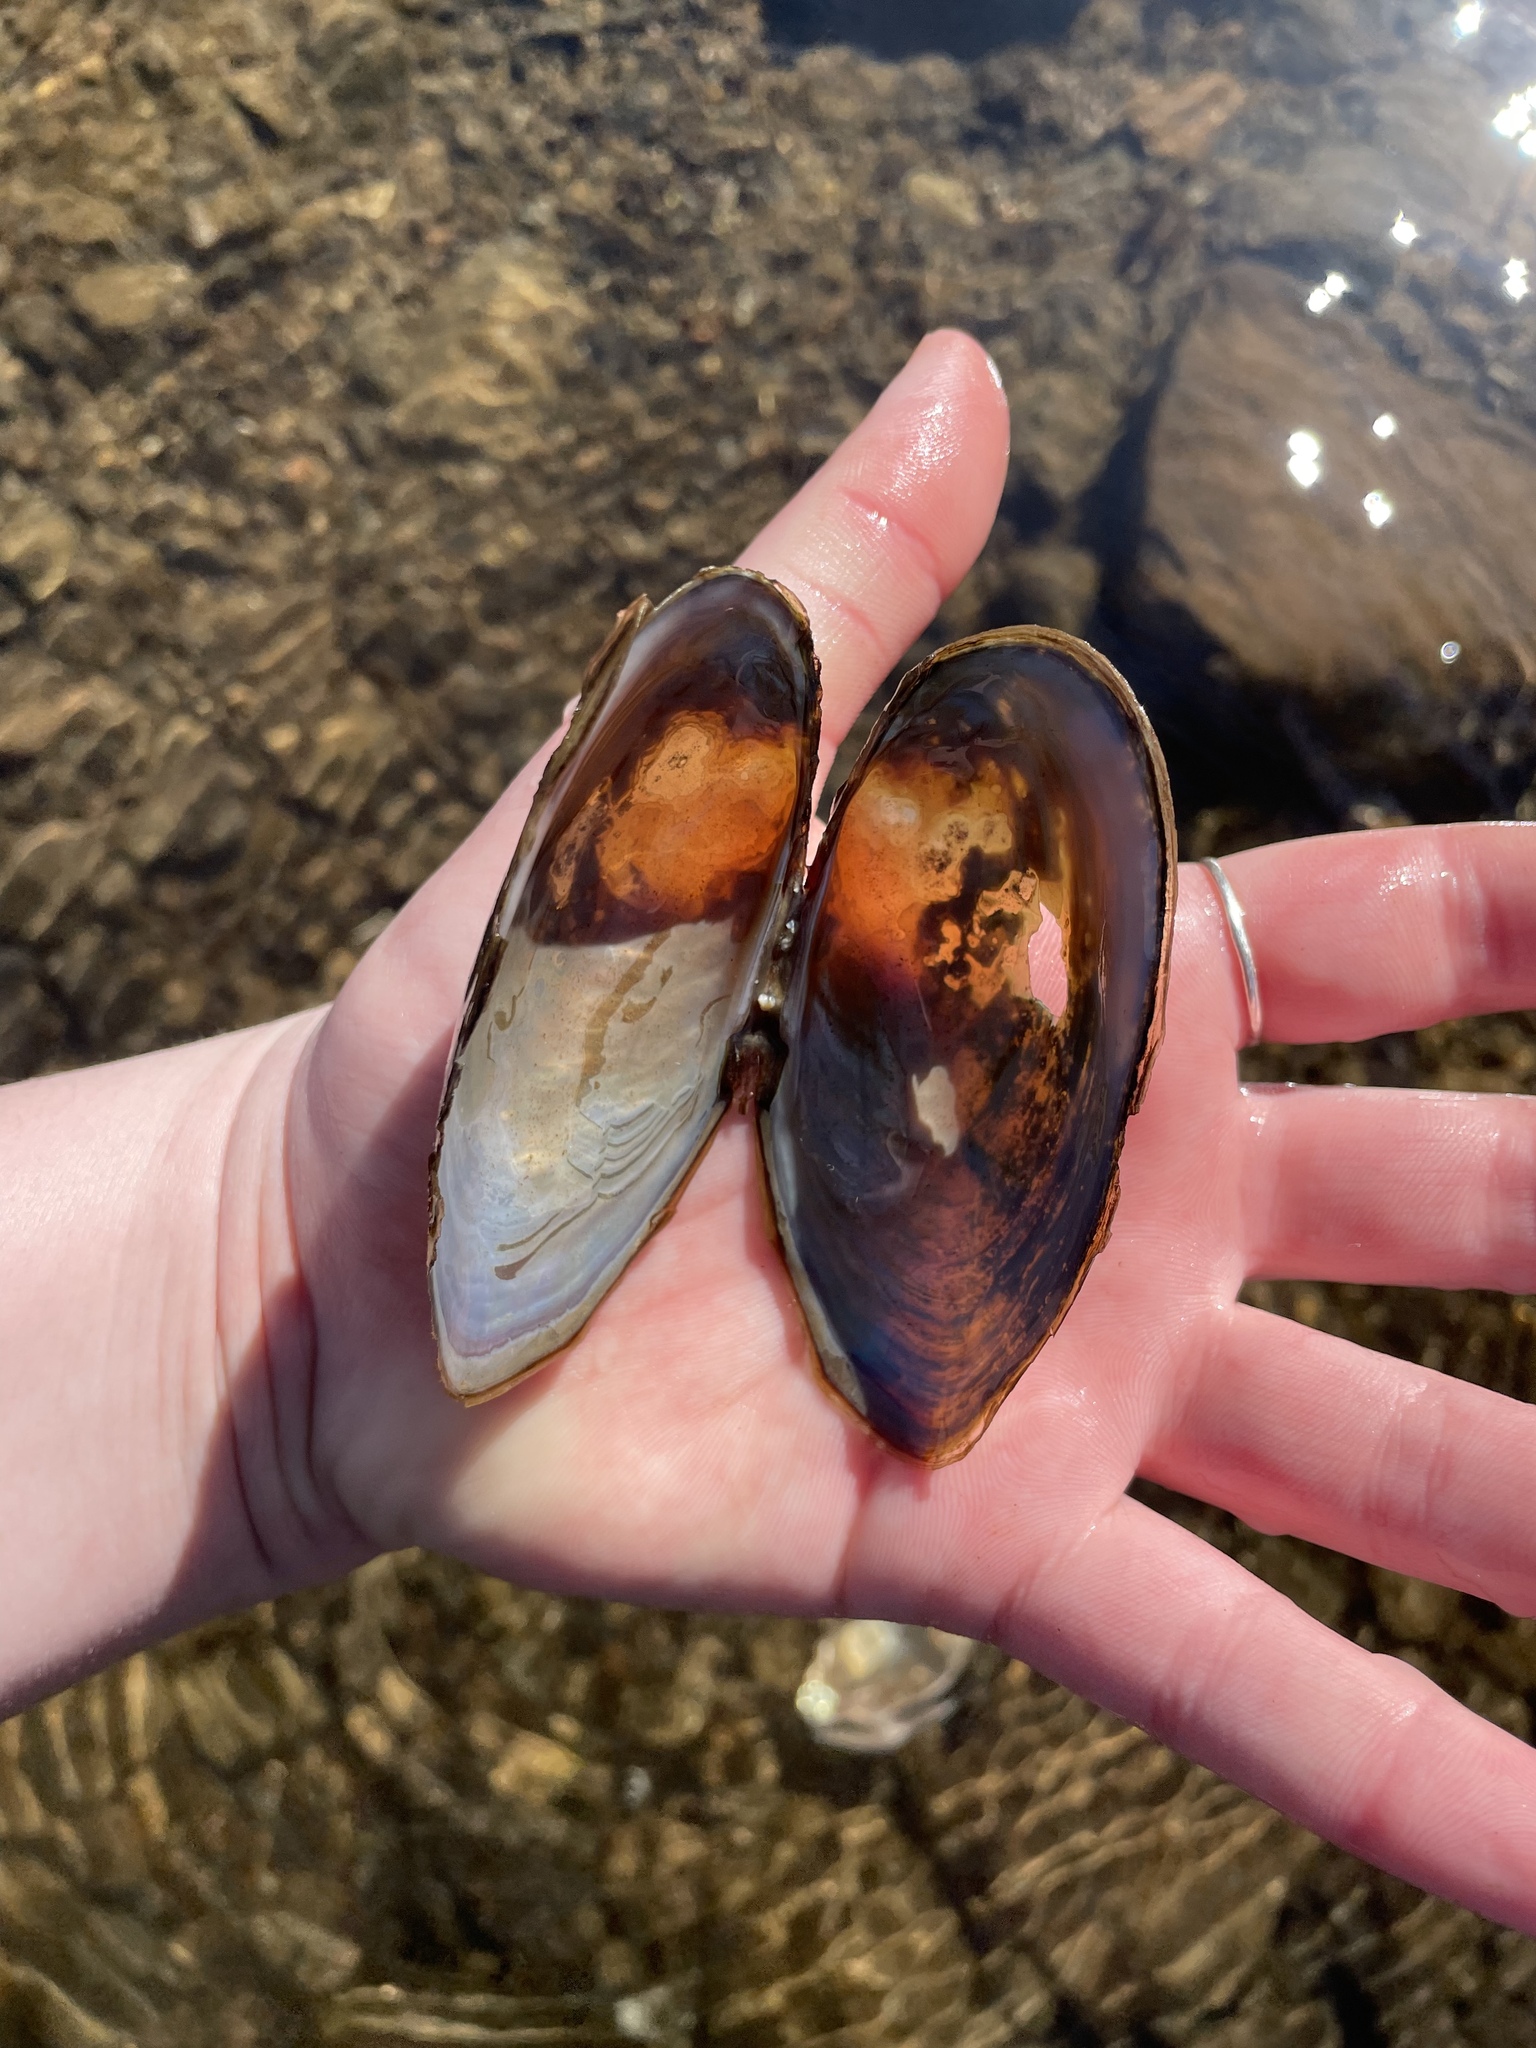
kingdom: Animalia
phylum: Mollusca
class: Bivalvia
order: Unionida
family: Unionidae
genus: Utterbackiana
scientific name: Utterbackiana implicata
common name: Alewife floater
